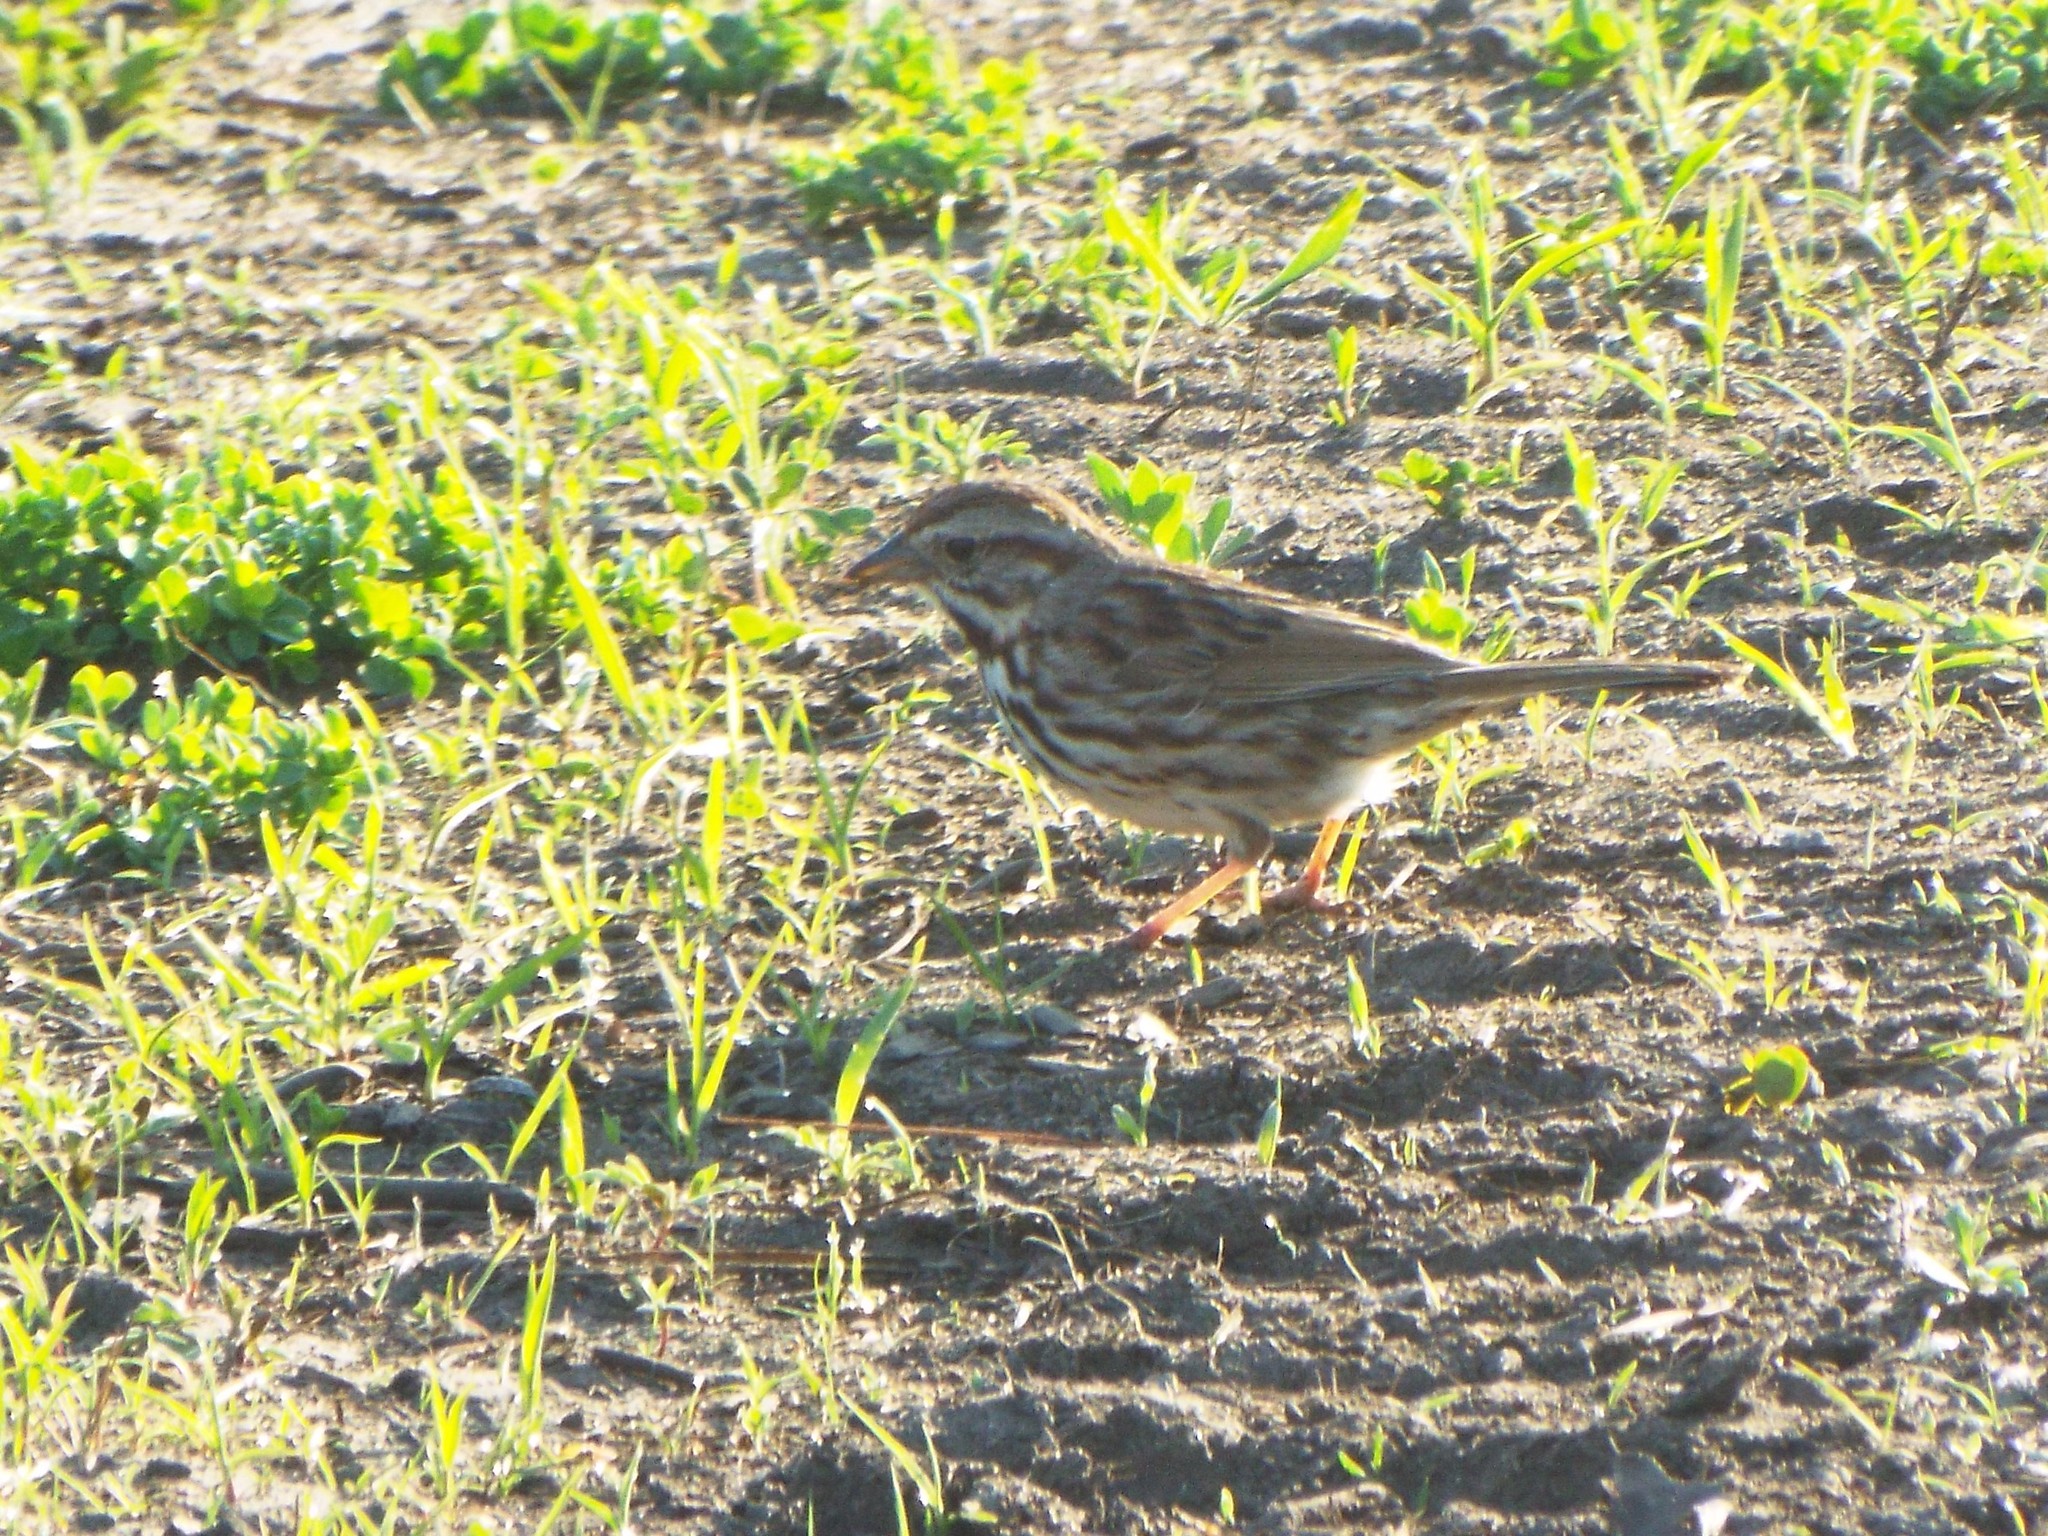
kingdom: Animalia
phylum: Chordata
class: Aves
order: Passeriformes
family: Passerellidae
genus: Melospiza
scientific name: Melospiza melodia
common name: Song sparrow
